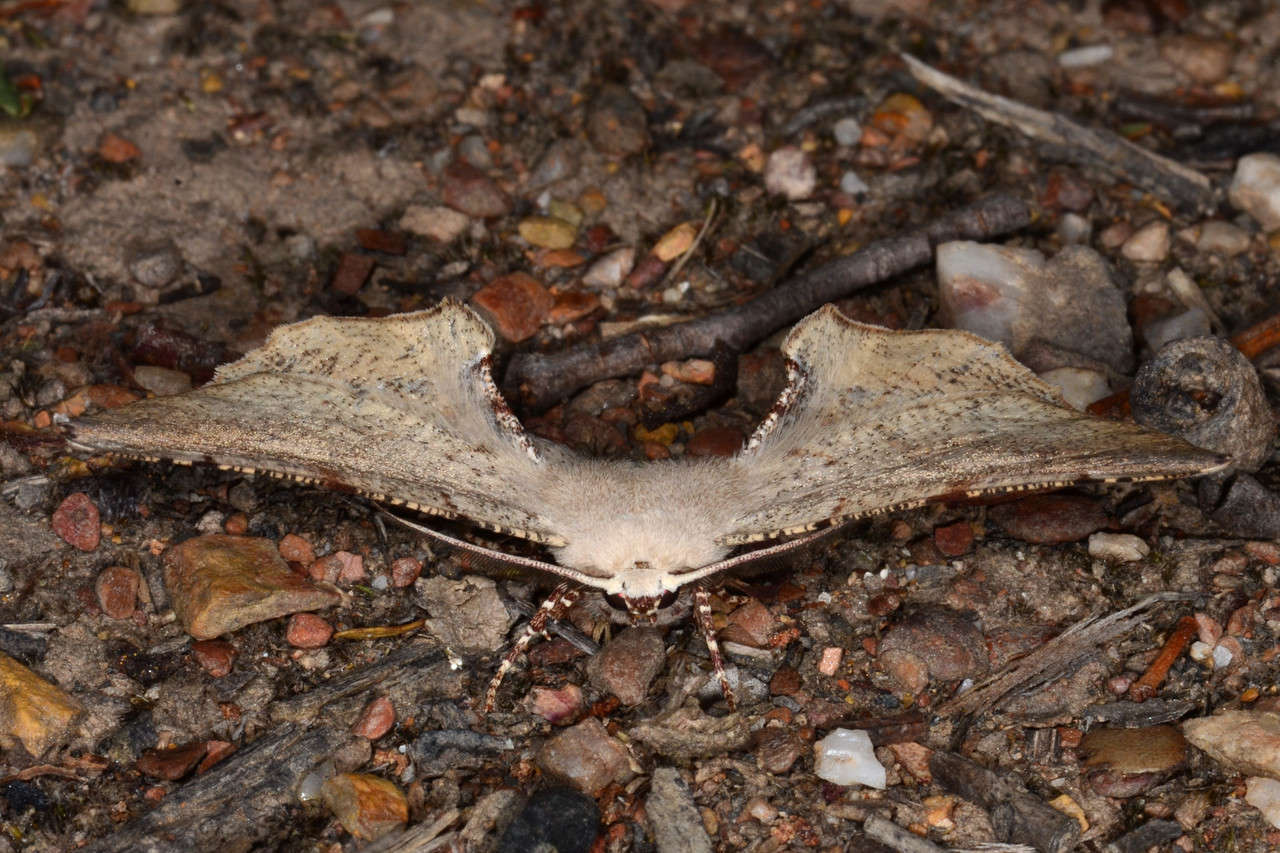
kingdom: Animalia
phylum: Arthropoda
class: Insecta
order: Lepidoptera
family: Geometridae
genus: Circopetes
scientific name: Circopetes obtusata
